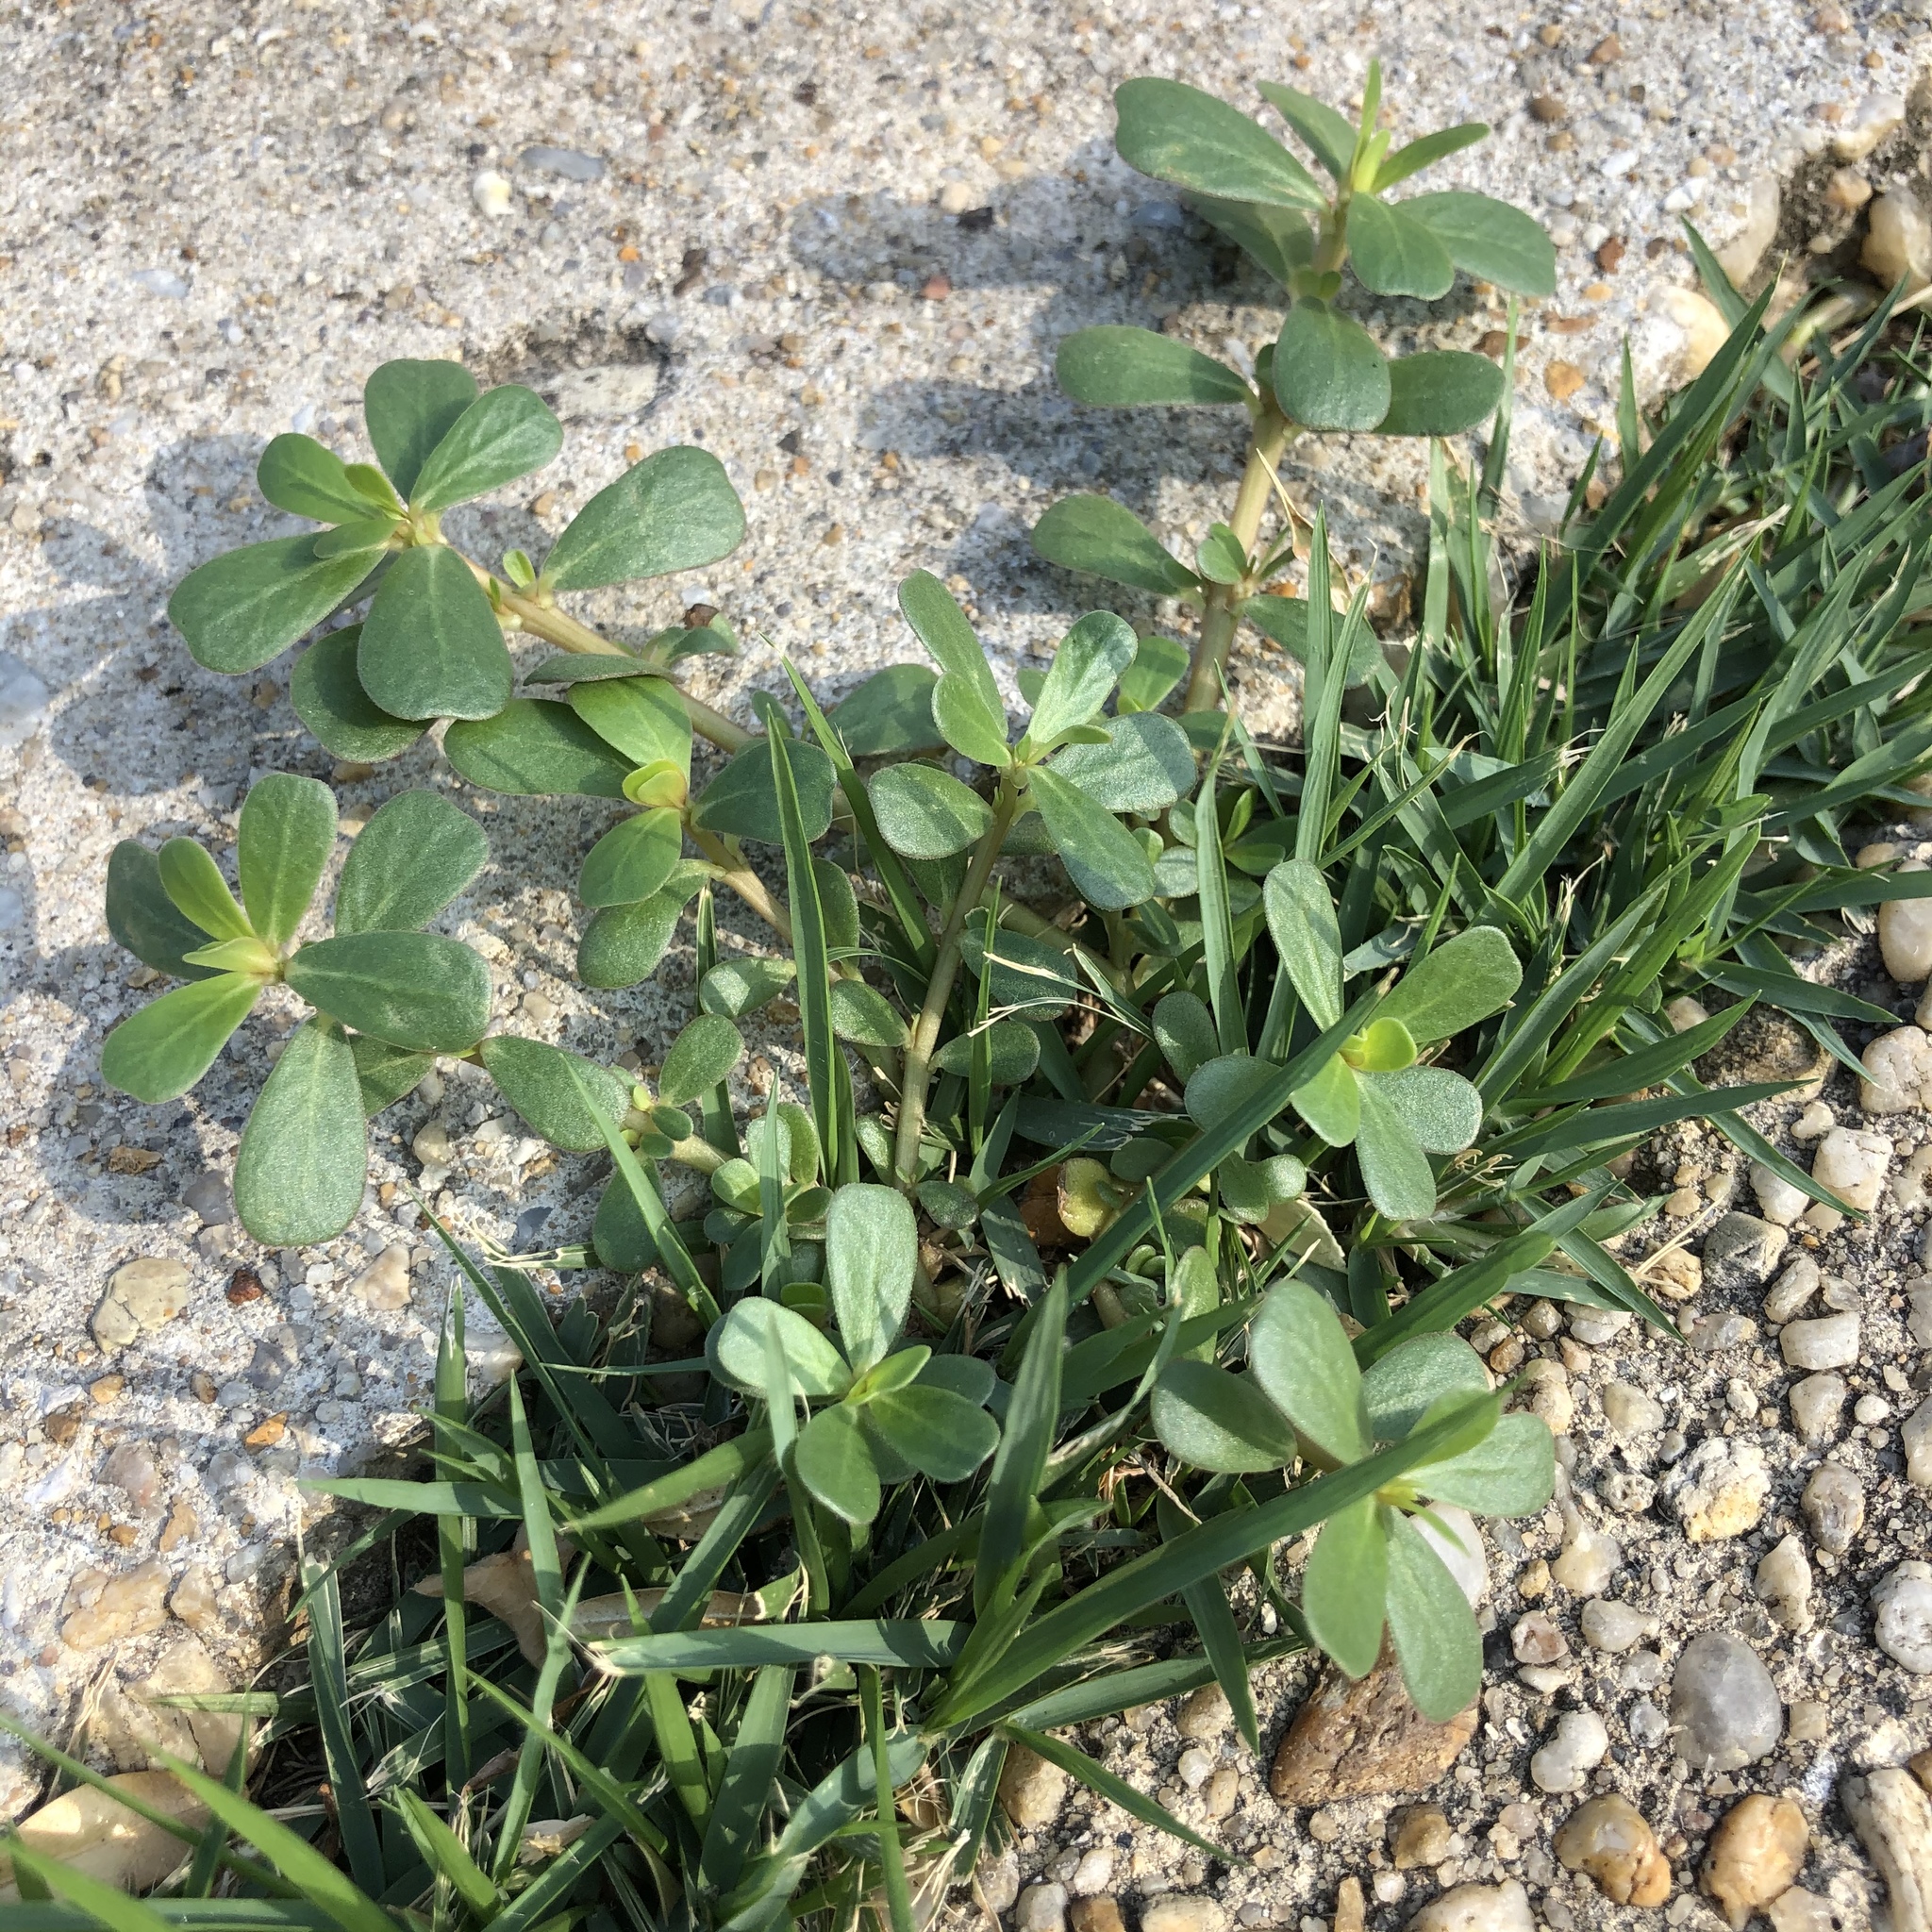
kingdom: Plantae
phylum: Tracheophyta
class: Magnoliopsida
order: Caryophyllales
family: Portulacaceae
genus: Portulaca
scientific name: Portulaca oleracea
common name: Common purslane
